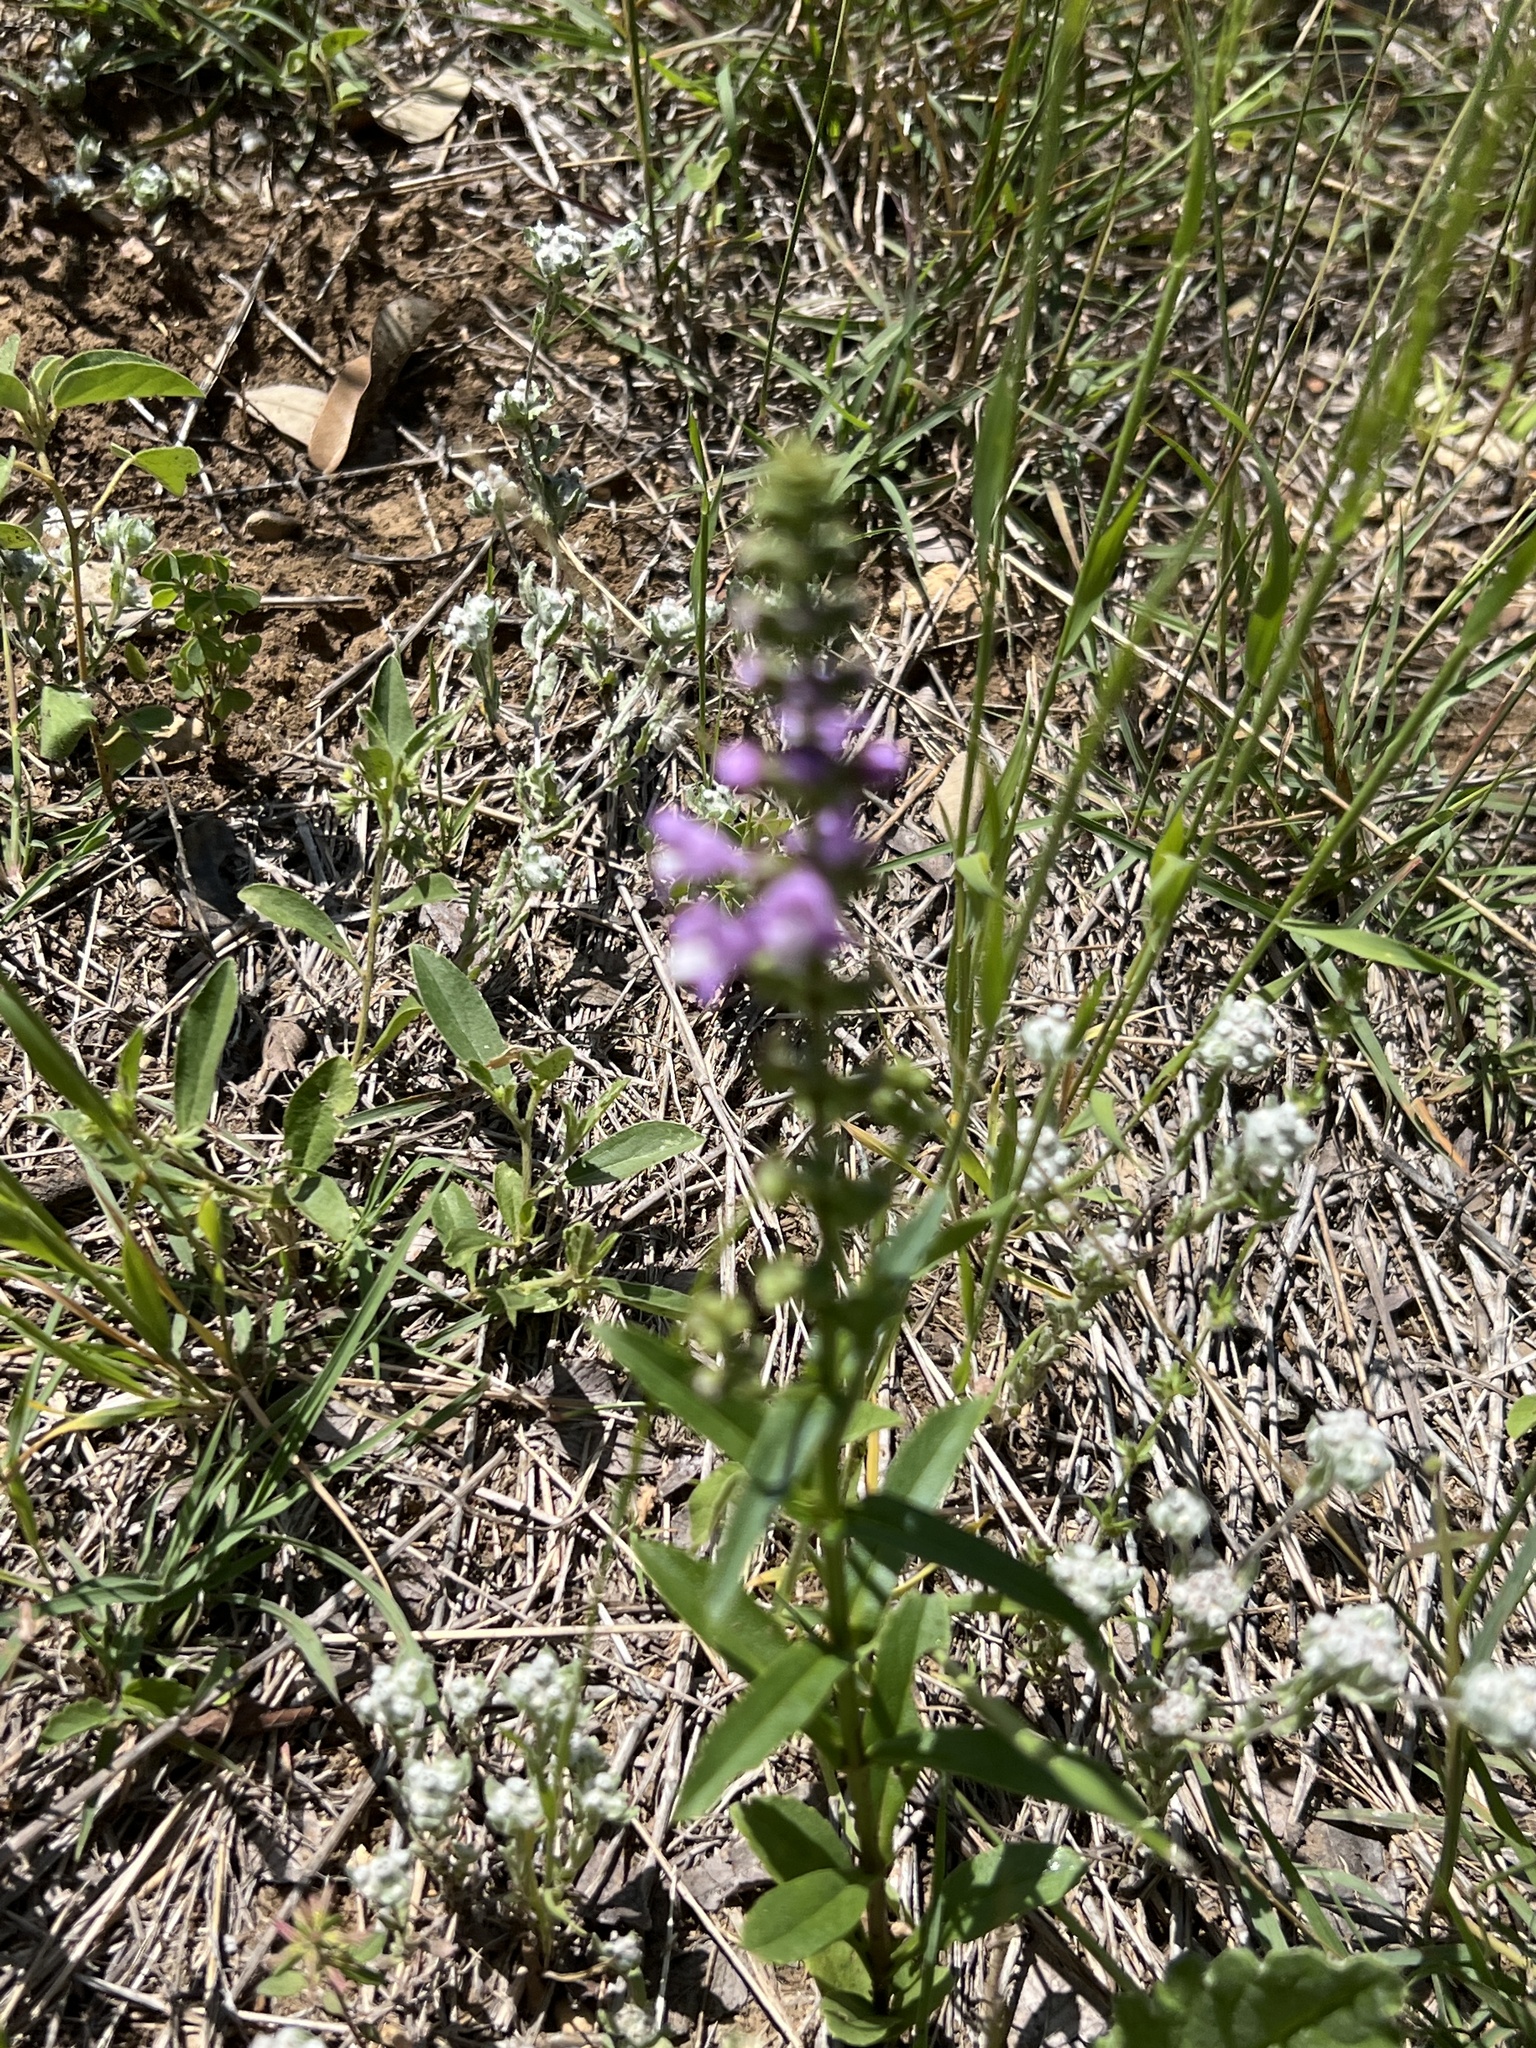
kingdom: Plantae
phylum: Tracheophyta
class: Magnoliopsida
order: Lamiales
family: Lamiaceae
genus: Warnockia
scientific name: Warnockia scutellarioides
